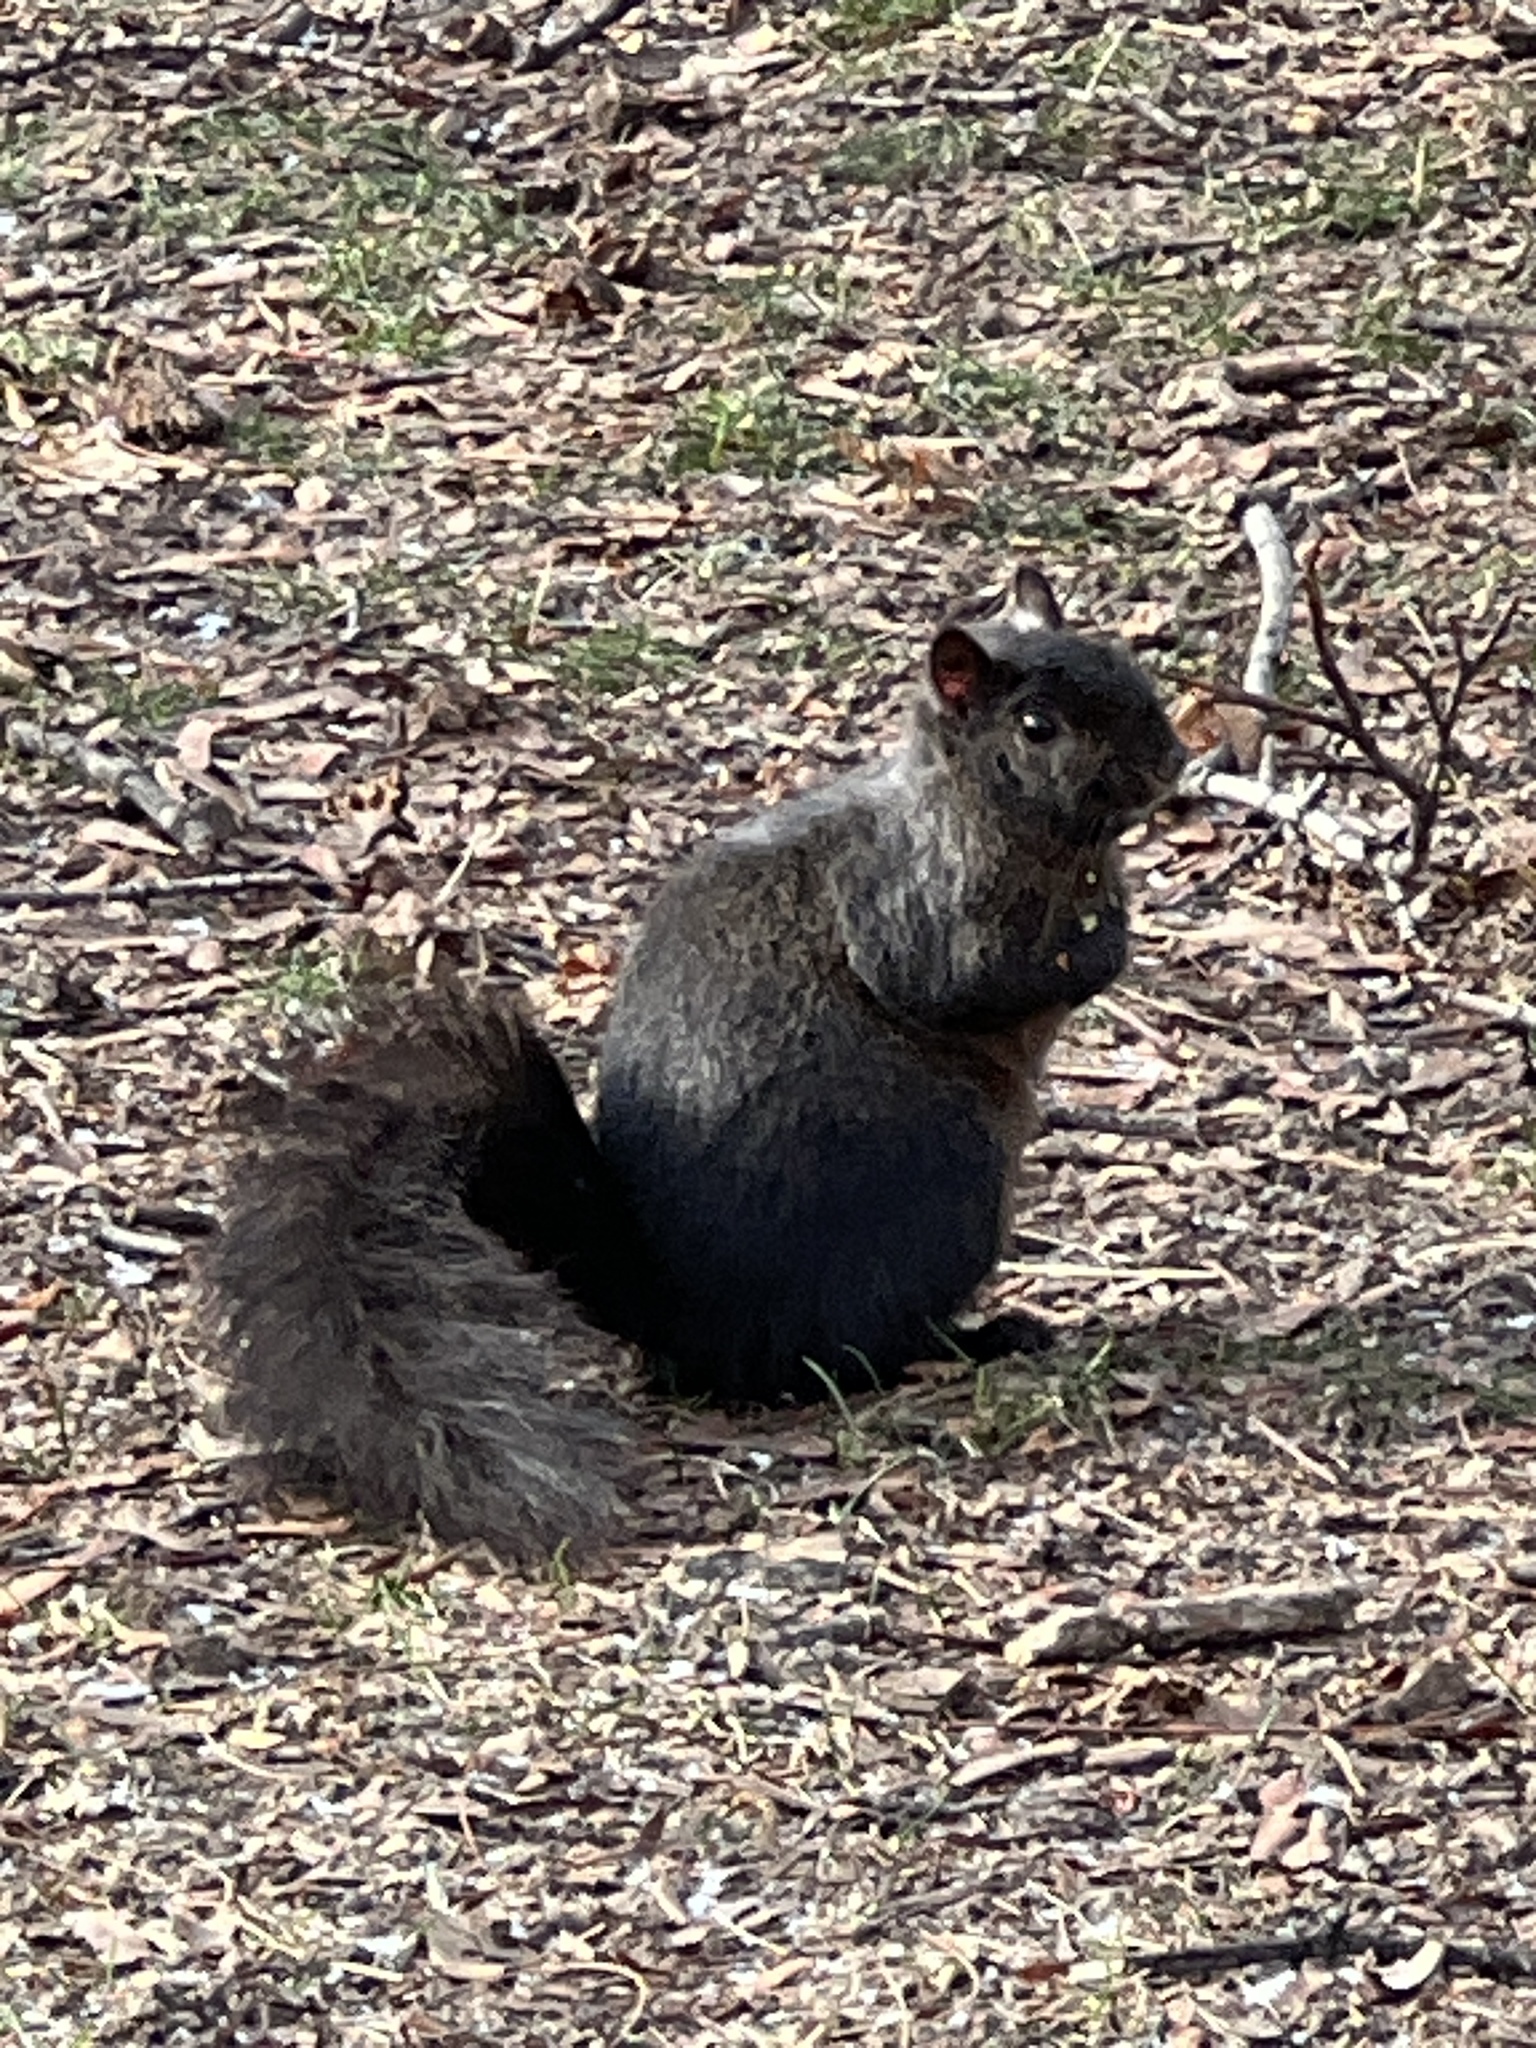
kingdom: Animalia
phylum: Chordata
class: Mammalia
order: Rodentia
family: Sciuridae
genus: Sciurus
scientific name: Sciurus carolinensis
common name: Eastern gray squirrel
